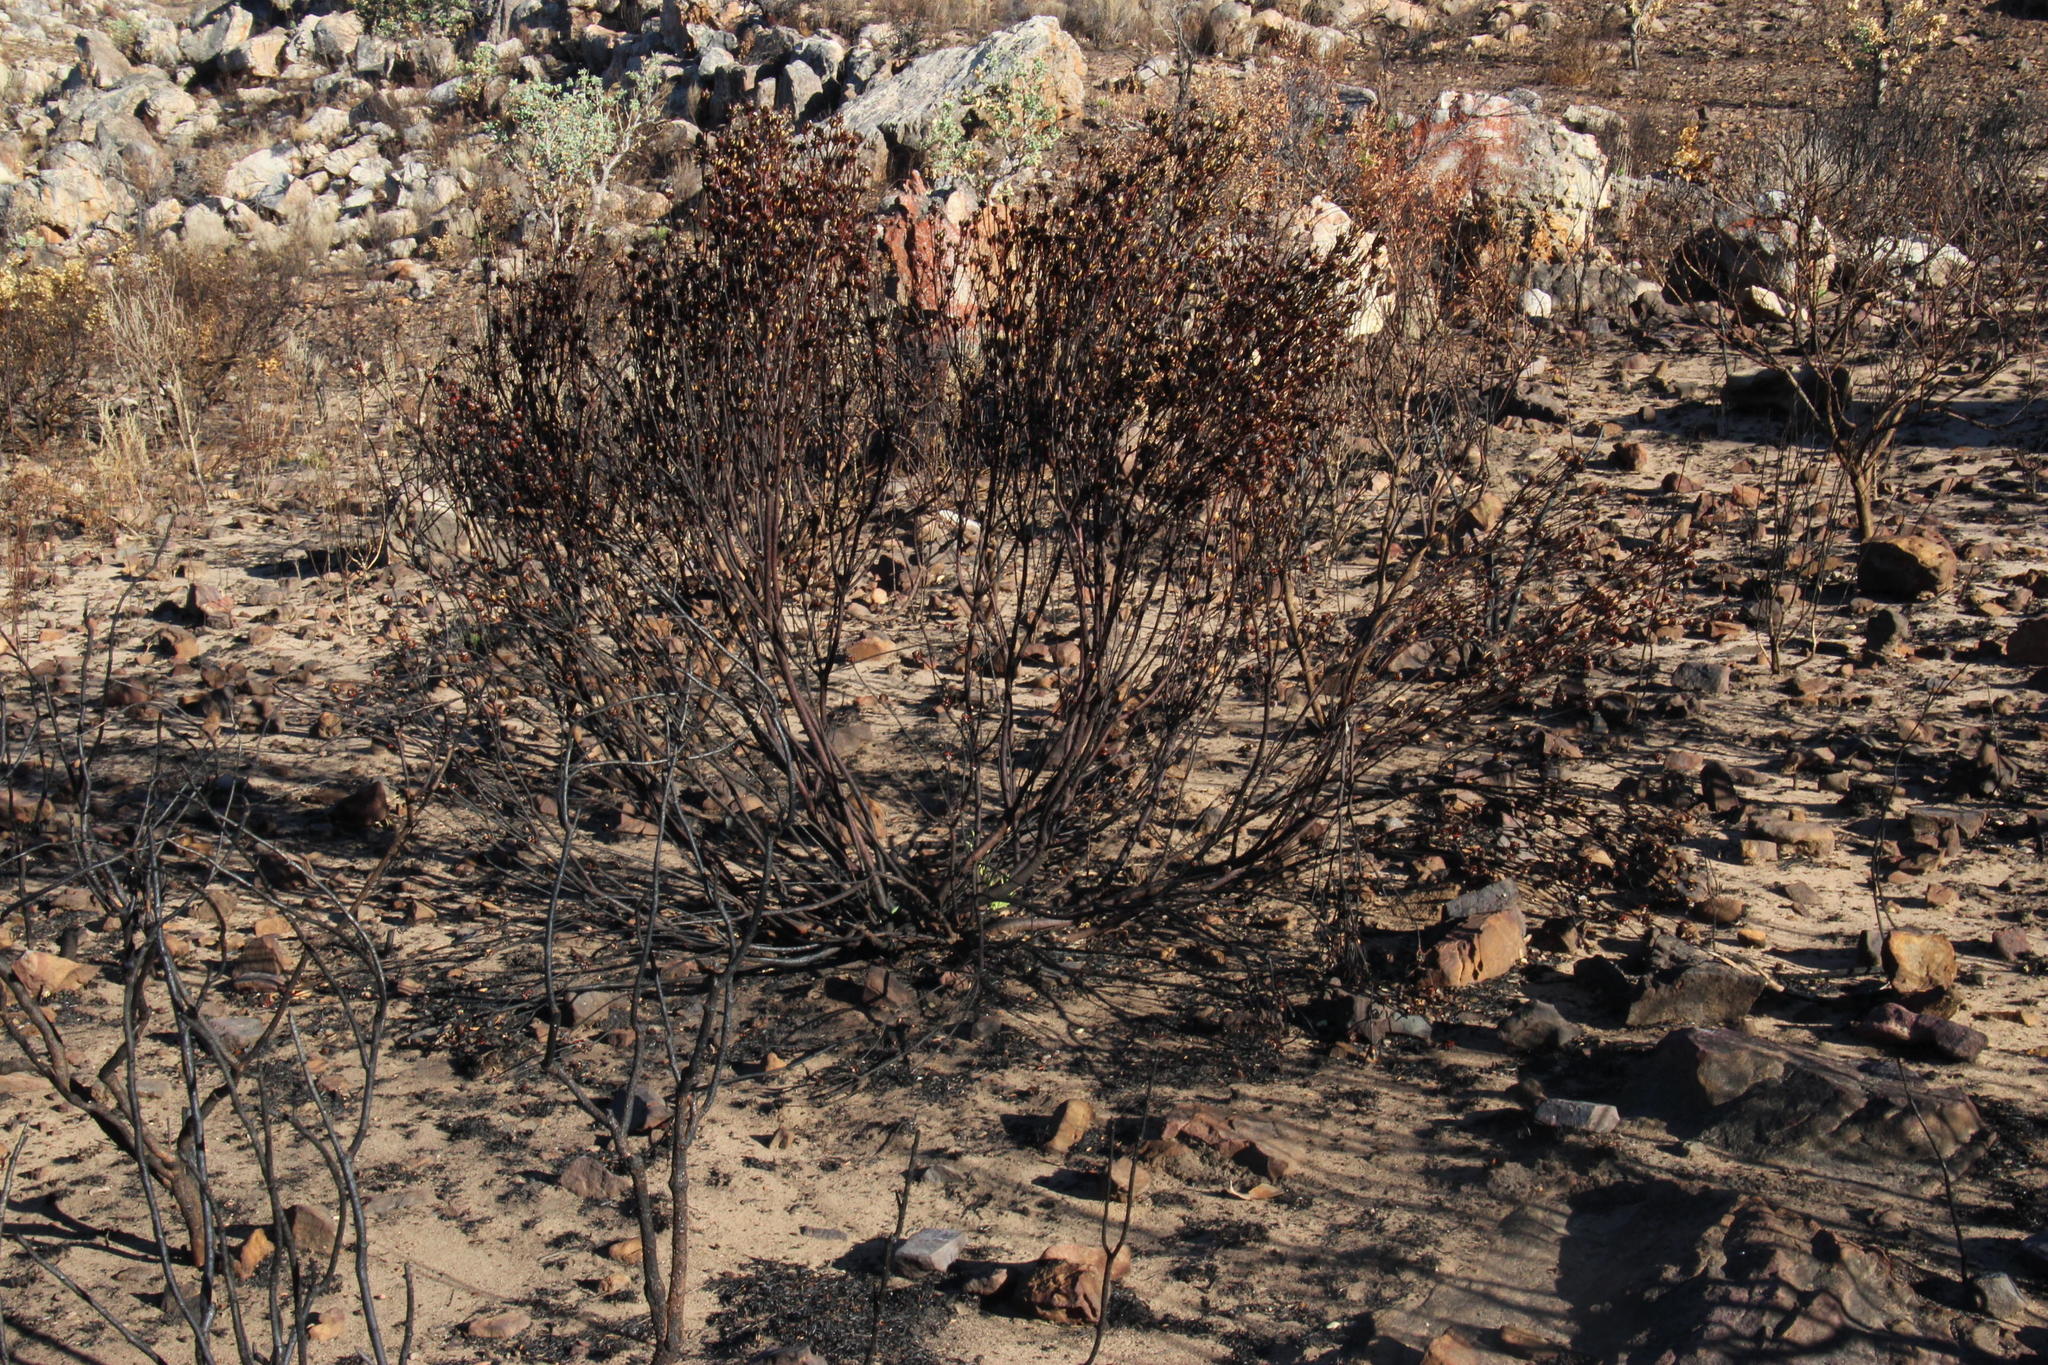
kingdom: Plantae
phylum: Tracheophyta
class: Magnoliopsida
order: Proteales
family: Proteaceae
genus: Leucadendron
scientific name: Leucadendron salignum
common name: Common sunshine conebush
